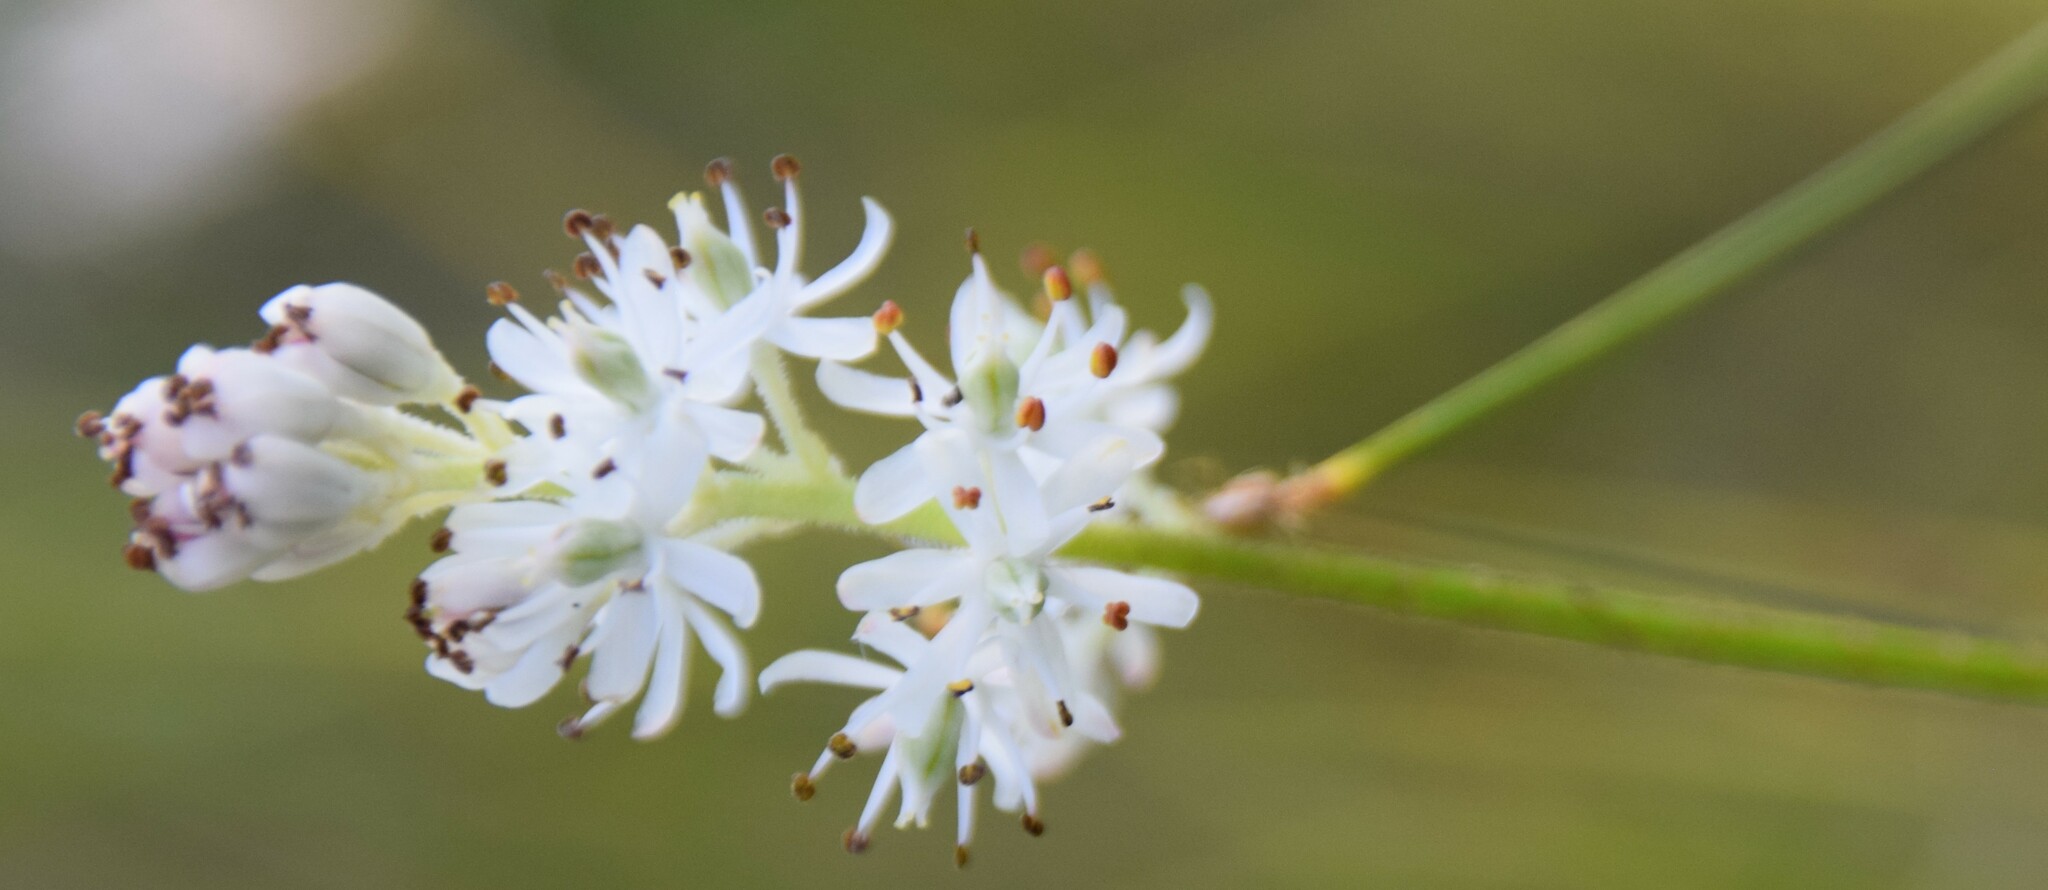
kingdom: Plantae
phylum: Tracheophyta
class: Liliopsida
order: Alismatales
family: Tofieldiaceae
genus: Triantha
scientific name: Triantha glutinosa
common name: Glutinous tofieldia
